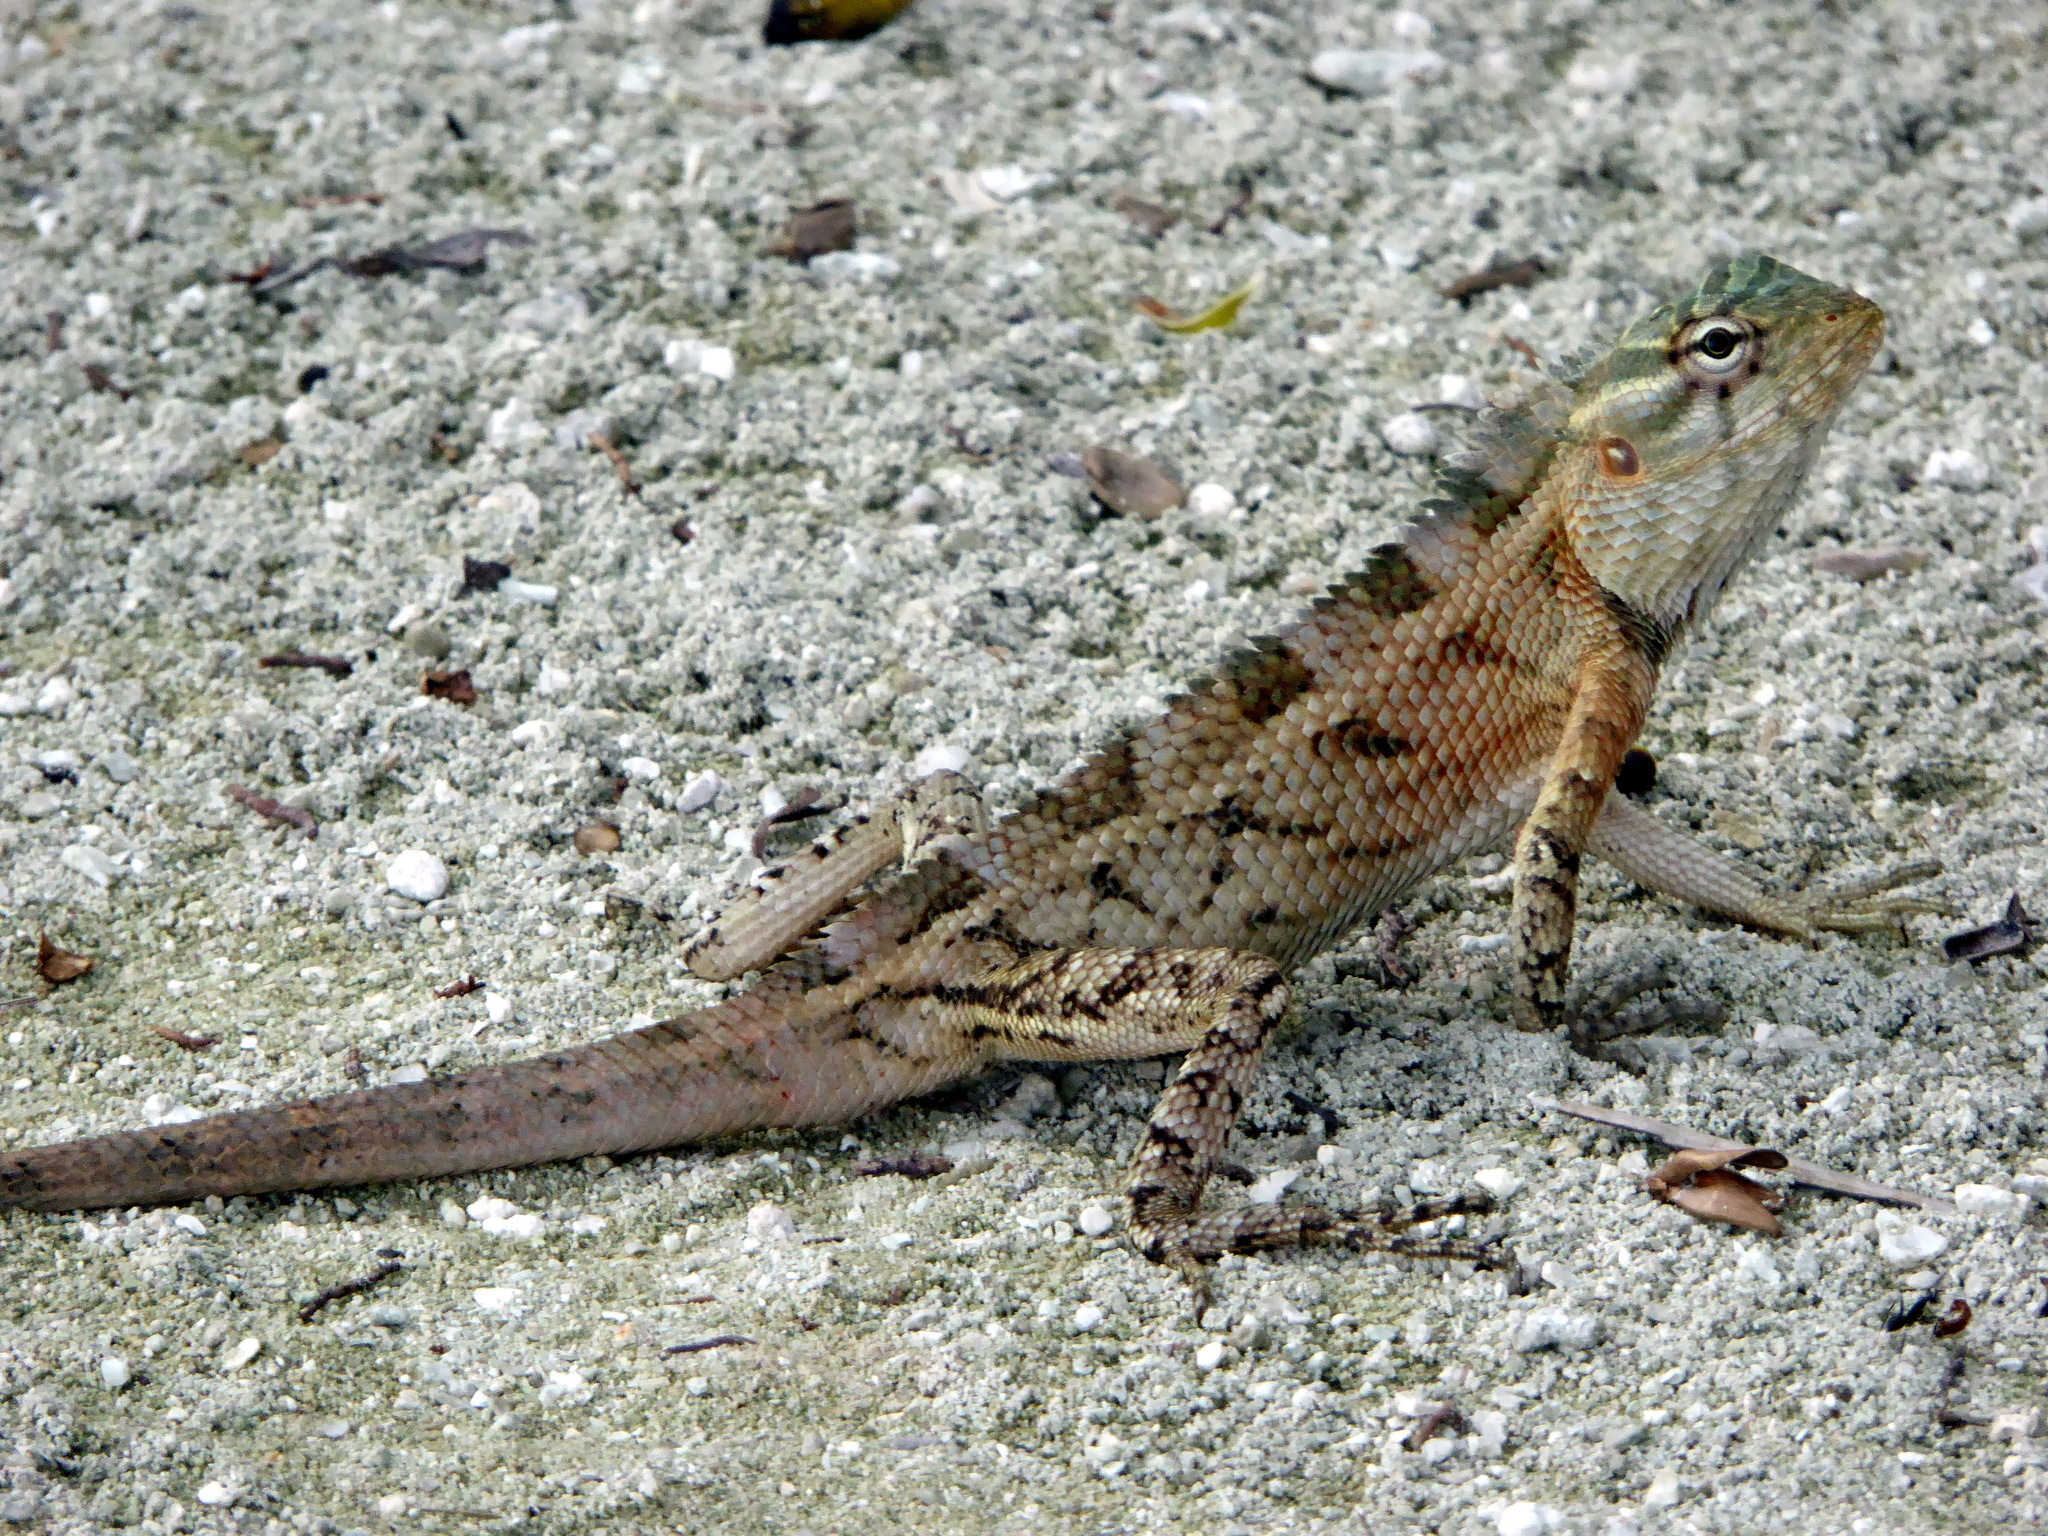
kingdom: Animalia
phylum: Chordata
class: Squamata
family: Agamidae
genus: Calotes
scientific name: Calotes versicolor
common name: Oriental garden lizard
